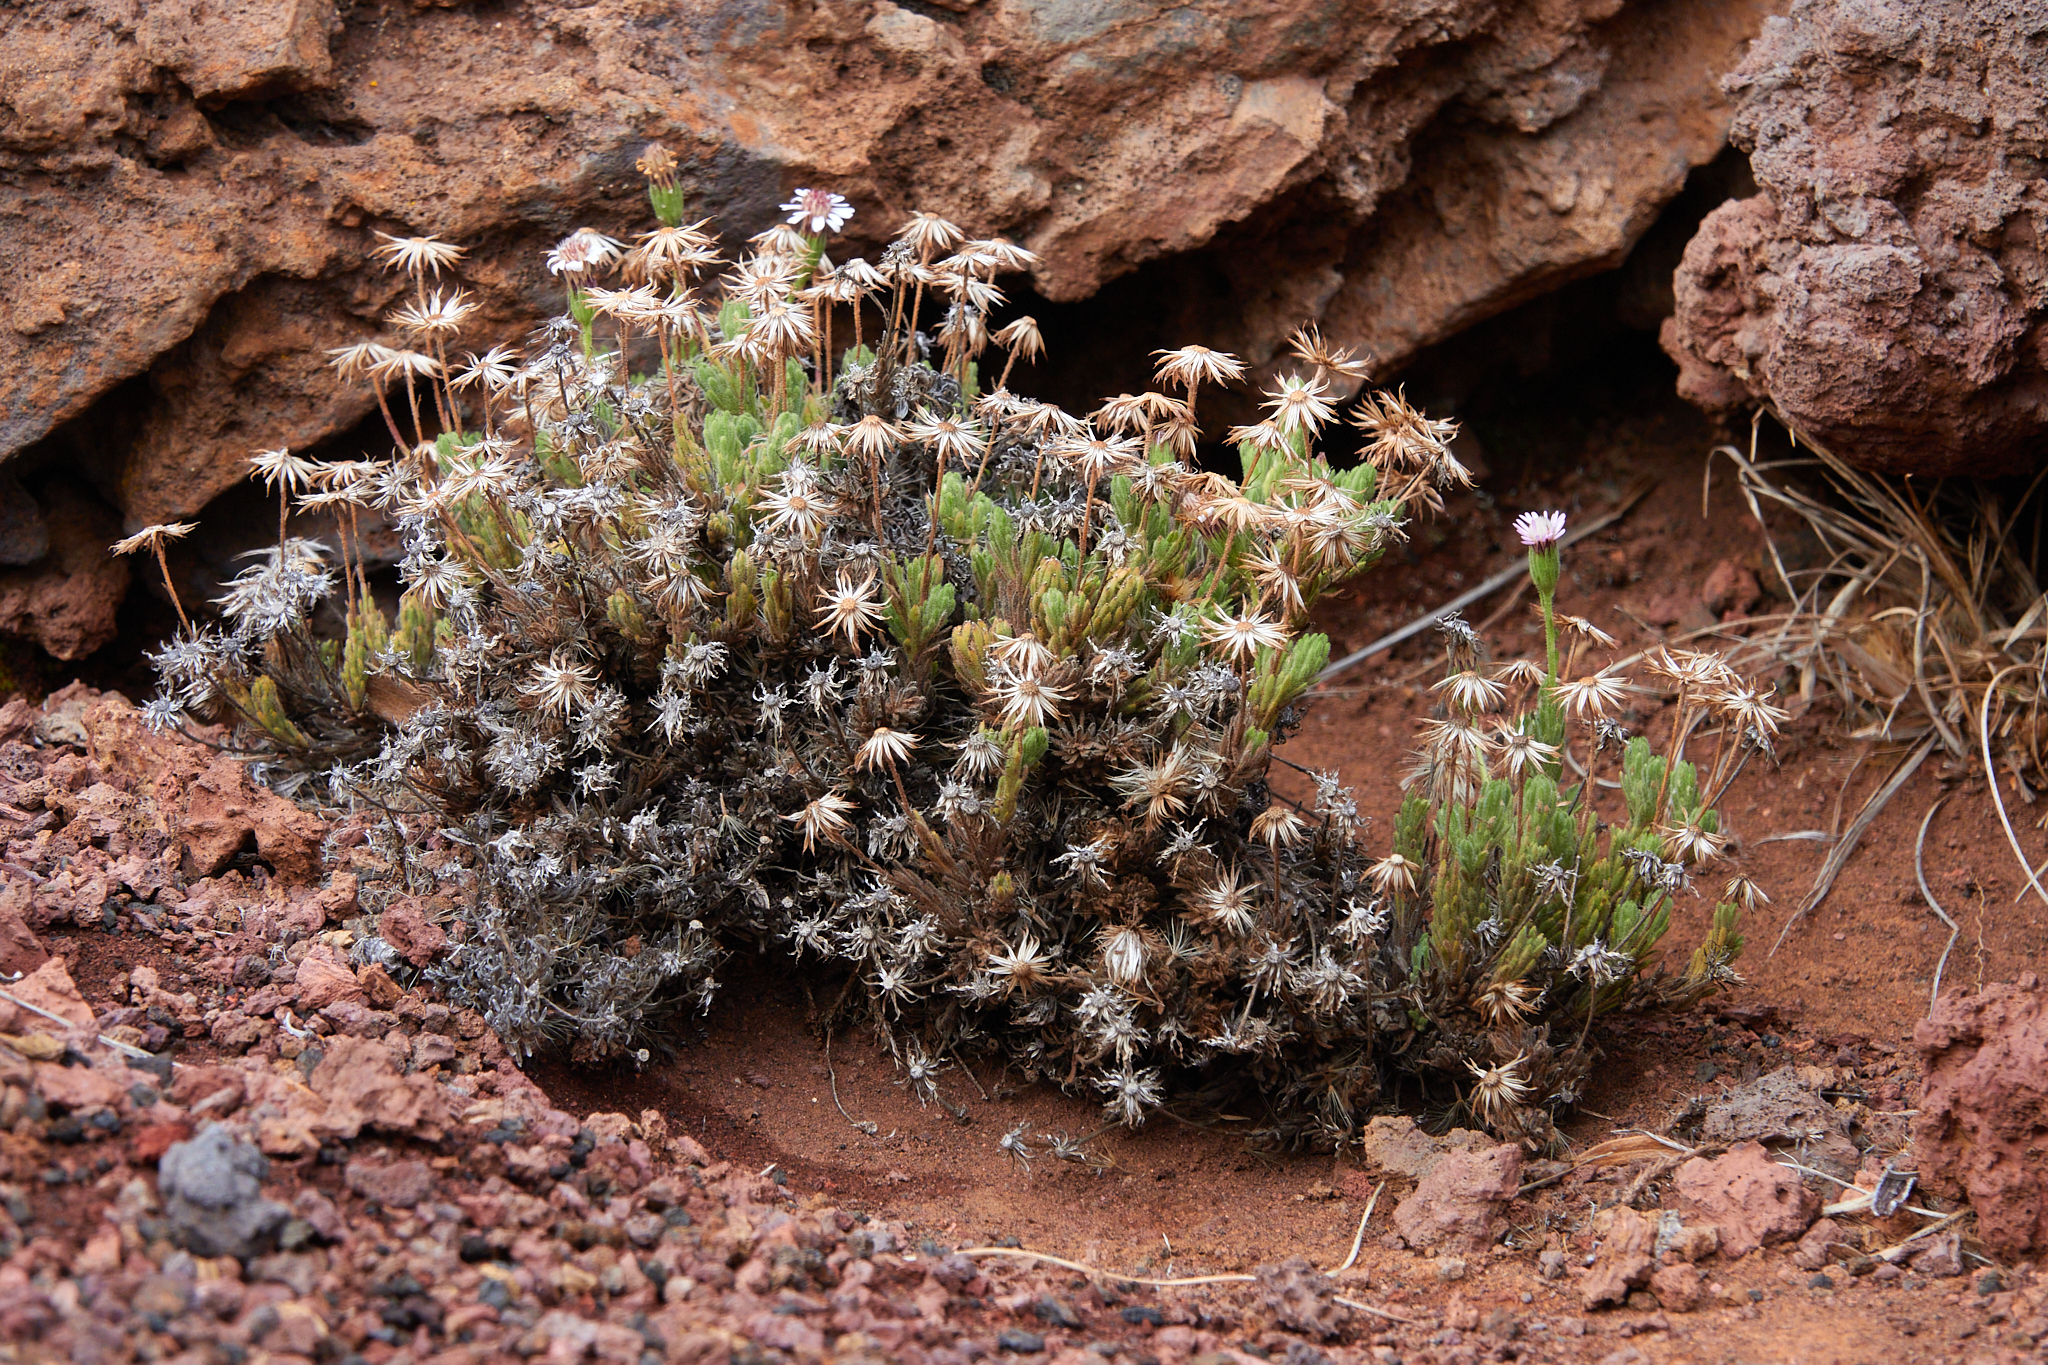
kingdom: Plantae
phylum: Tracheophyta
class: Magnoliopsida
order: Asterales
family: Asteraceae
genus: Tetramolopium
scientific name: Tetramolopium humile
